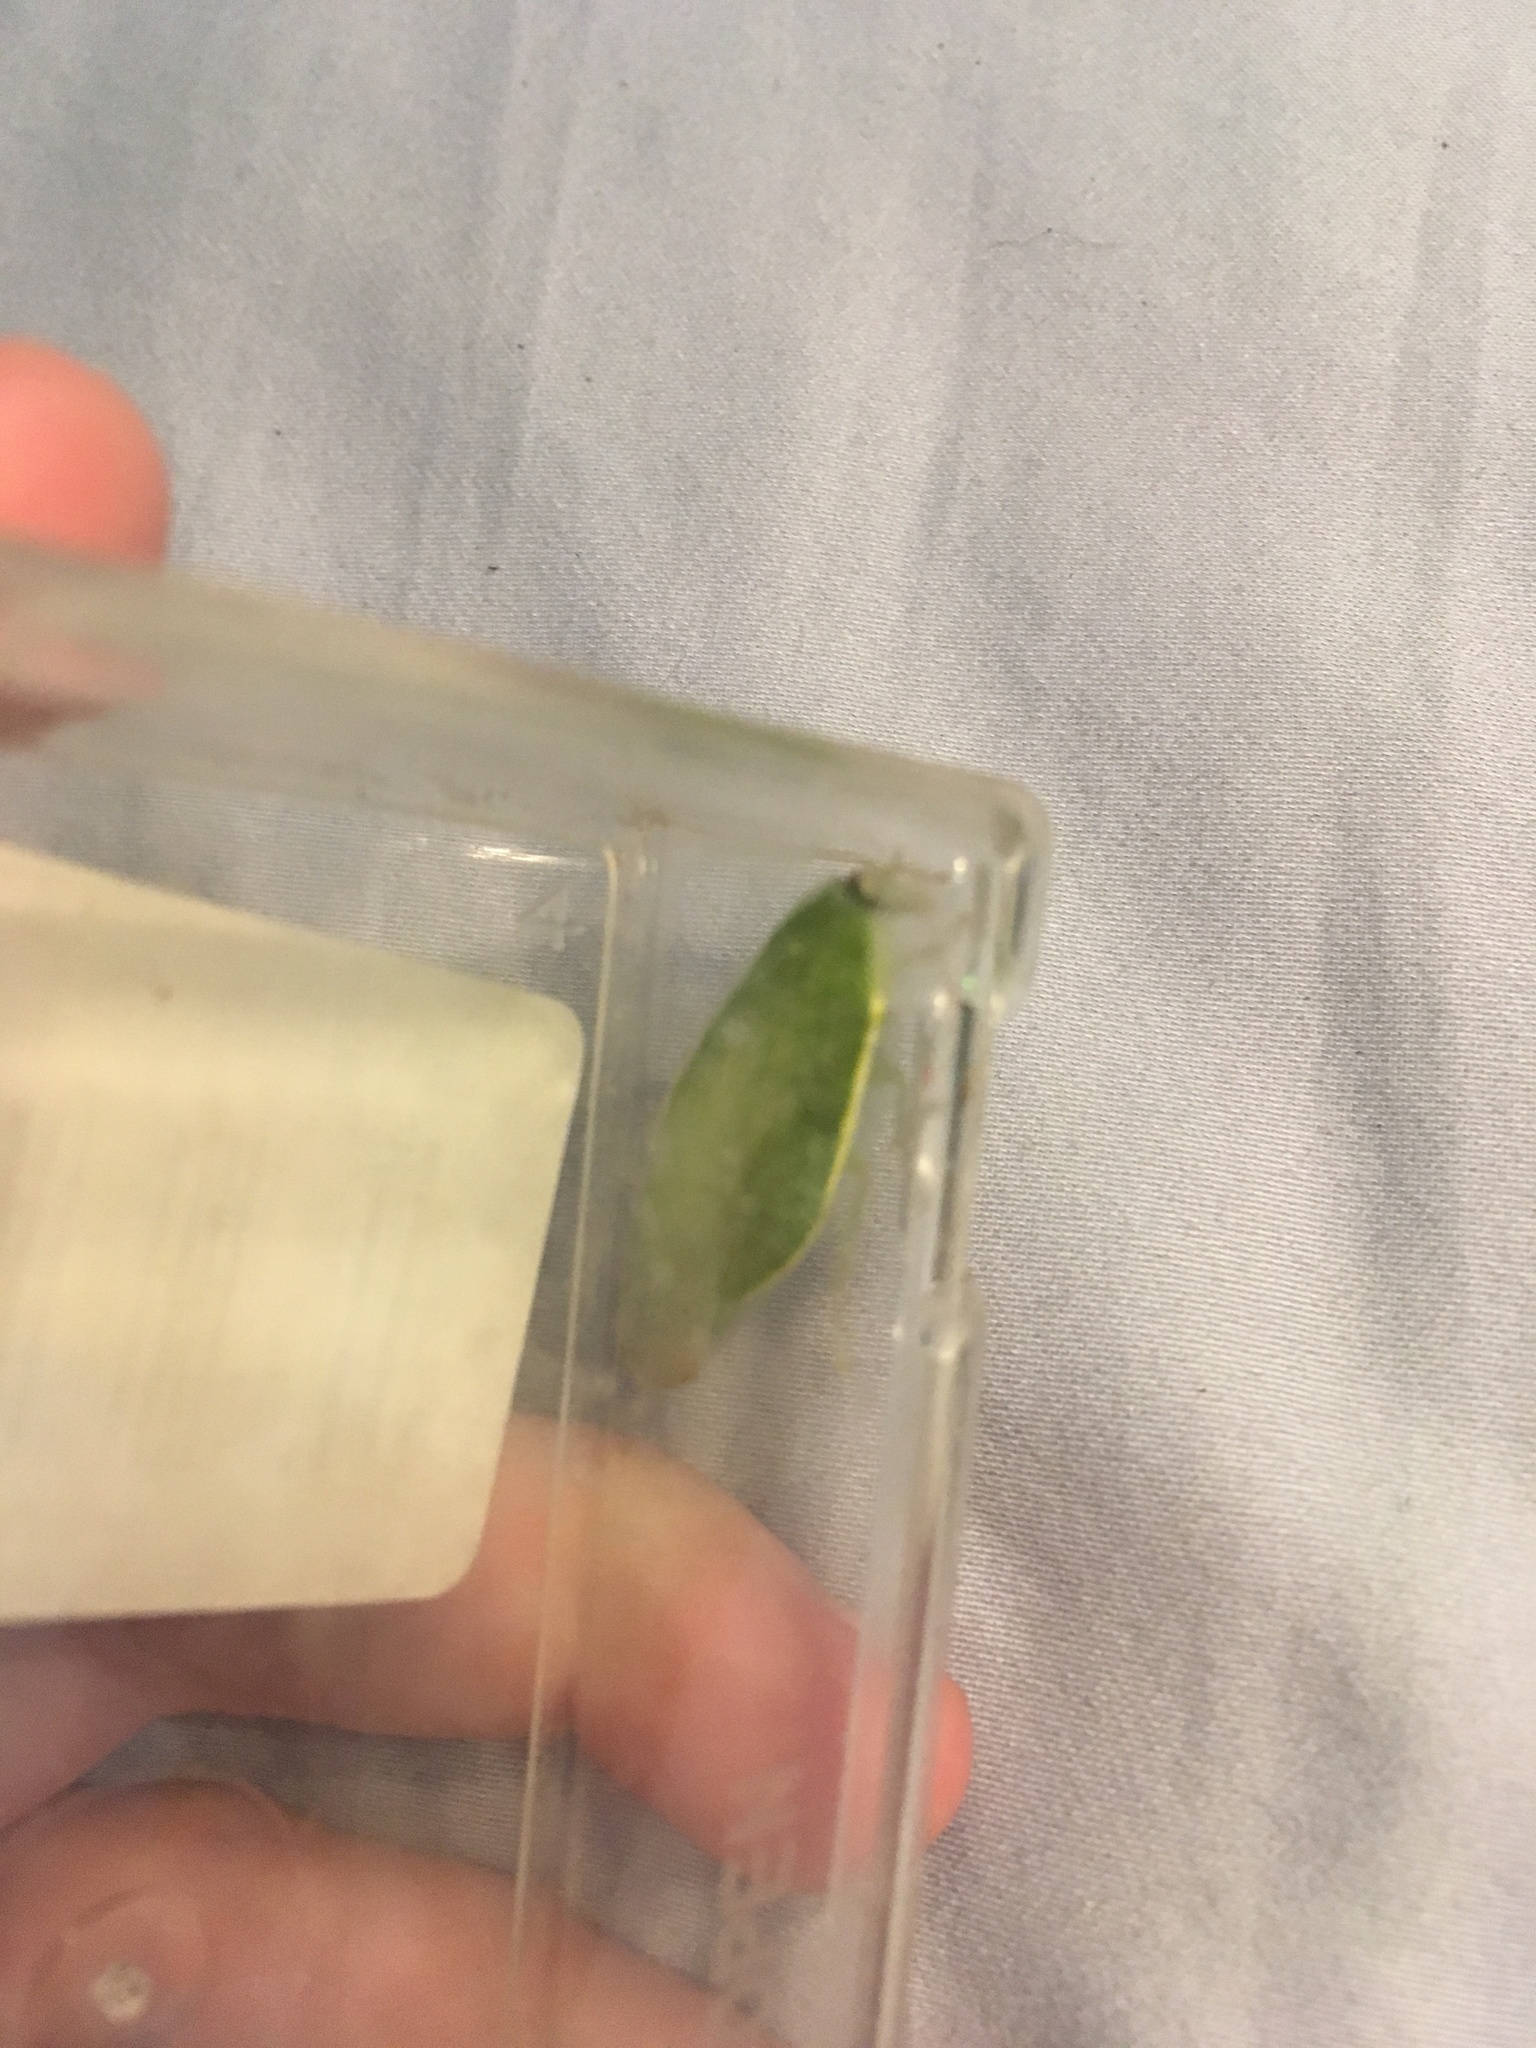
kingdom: Animalia
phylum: Arthropoda
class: Insecta
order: Blattodea
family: Blaberidae
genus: Panchlora
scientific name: Panchlora nivea
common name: Cuban cockroach
